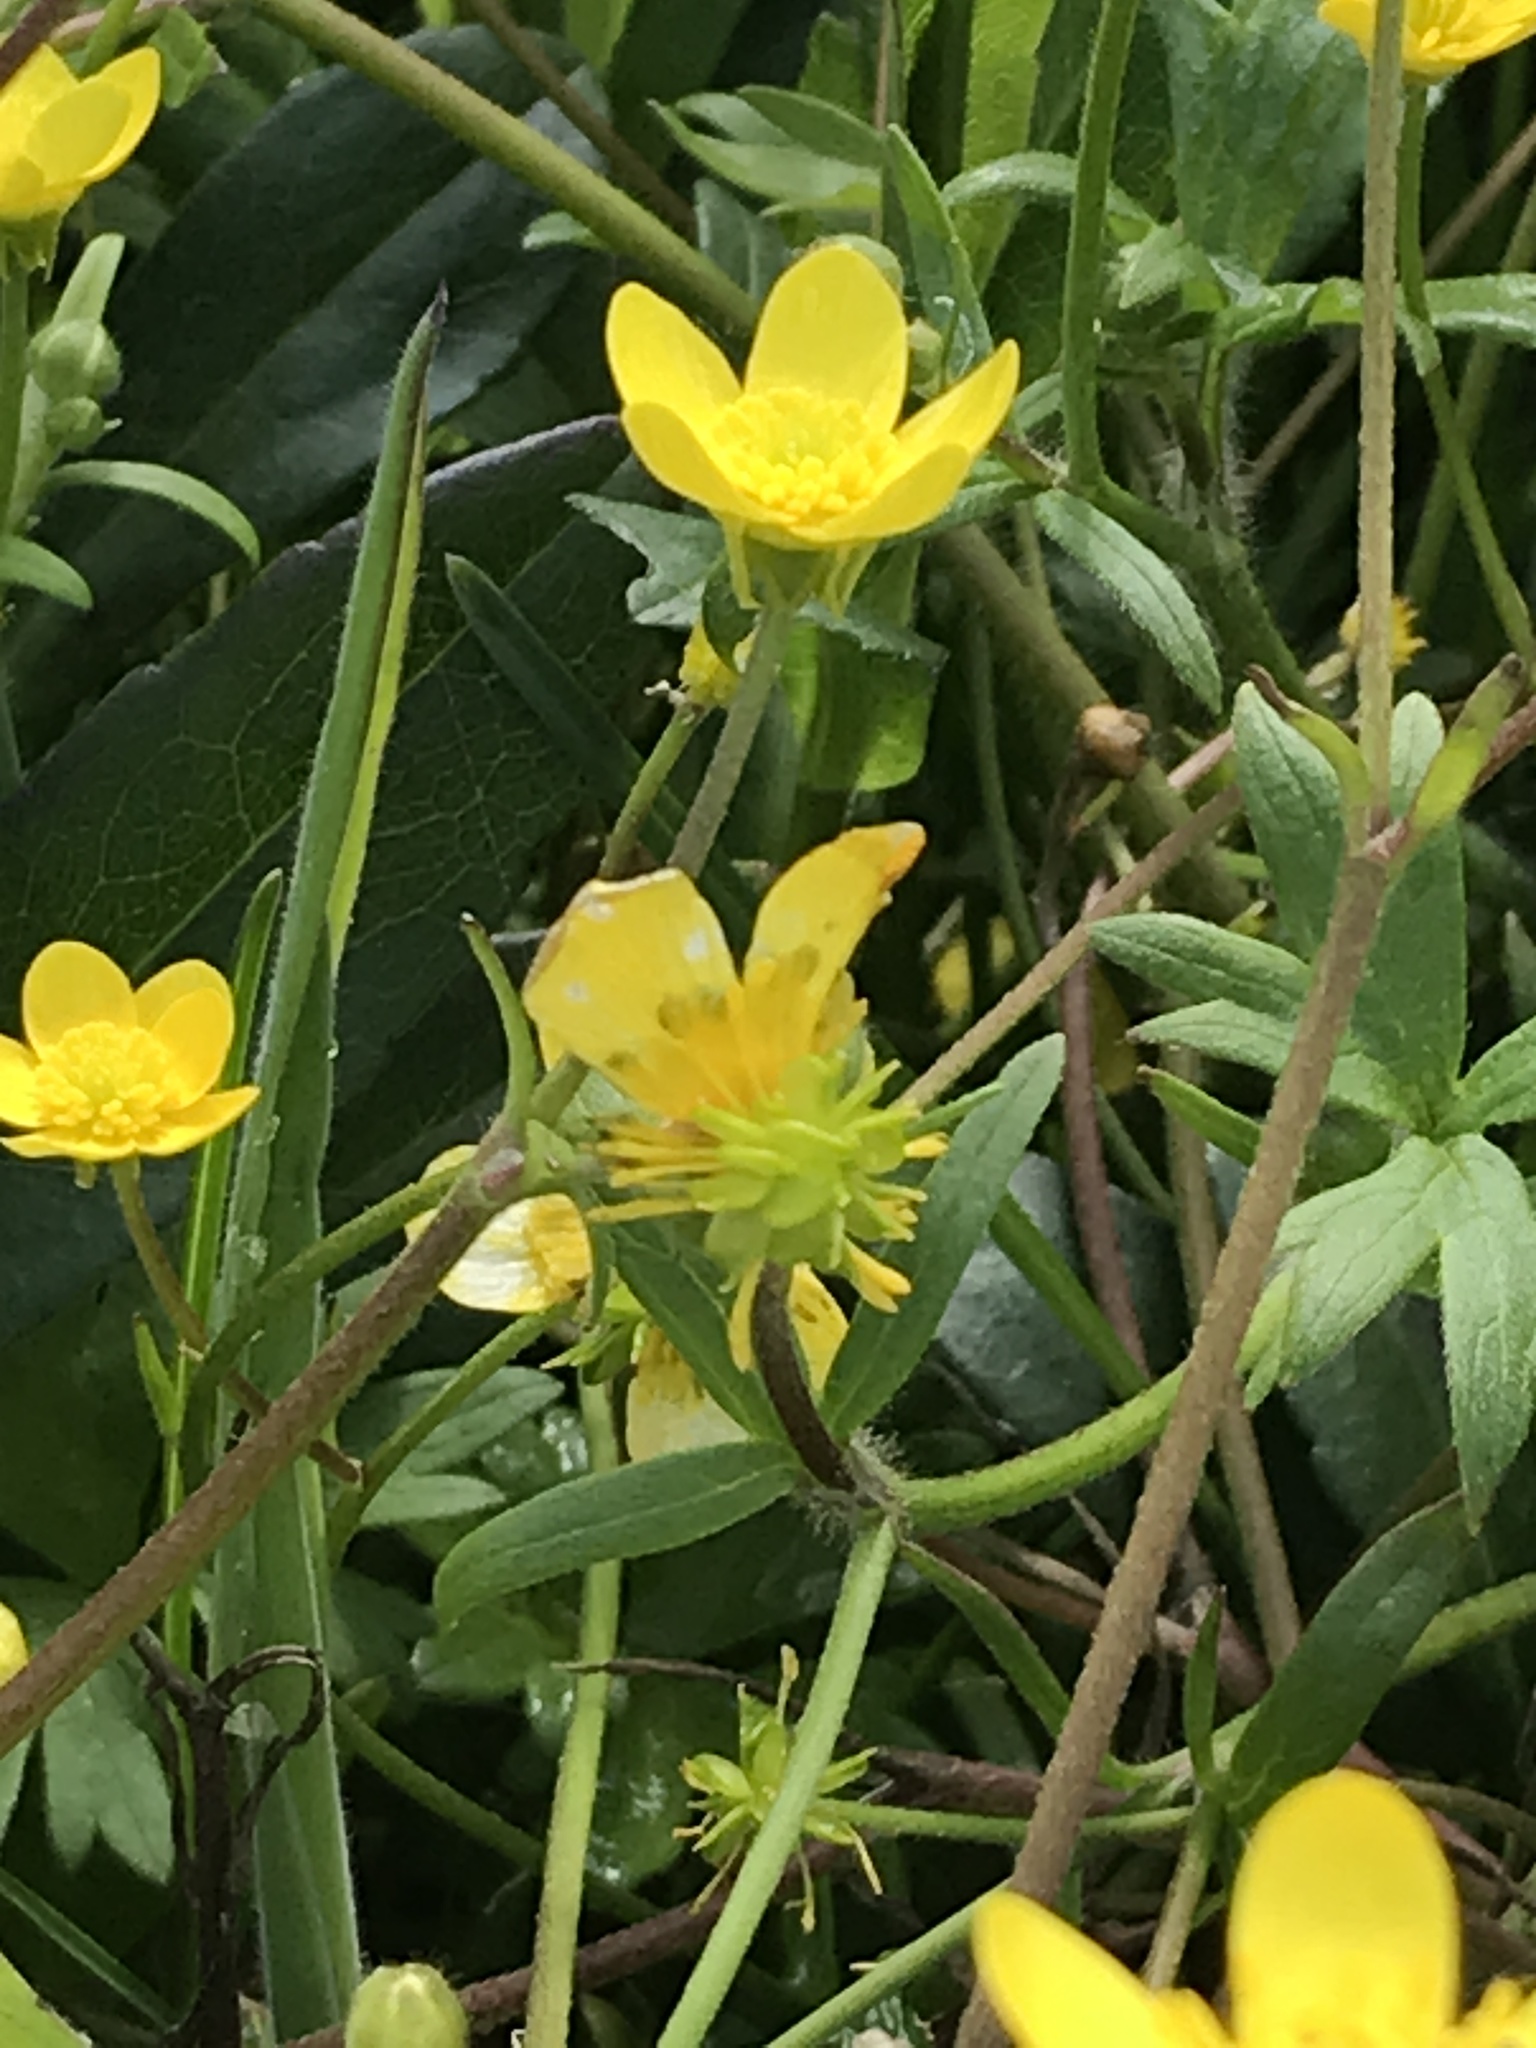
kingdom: Plantae
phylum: Tracheophyta
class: Magnoliopsida
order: Ranunculales
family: Ranunculaceae
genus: Ranunculus
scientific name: Ranunculus occidentalis
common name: Western buttercup
